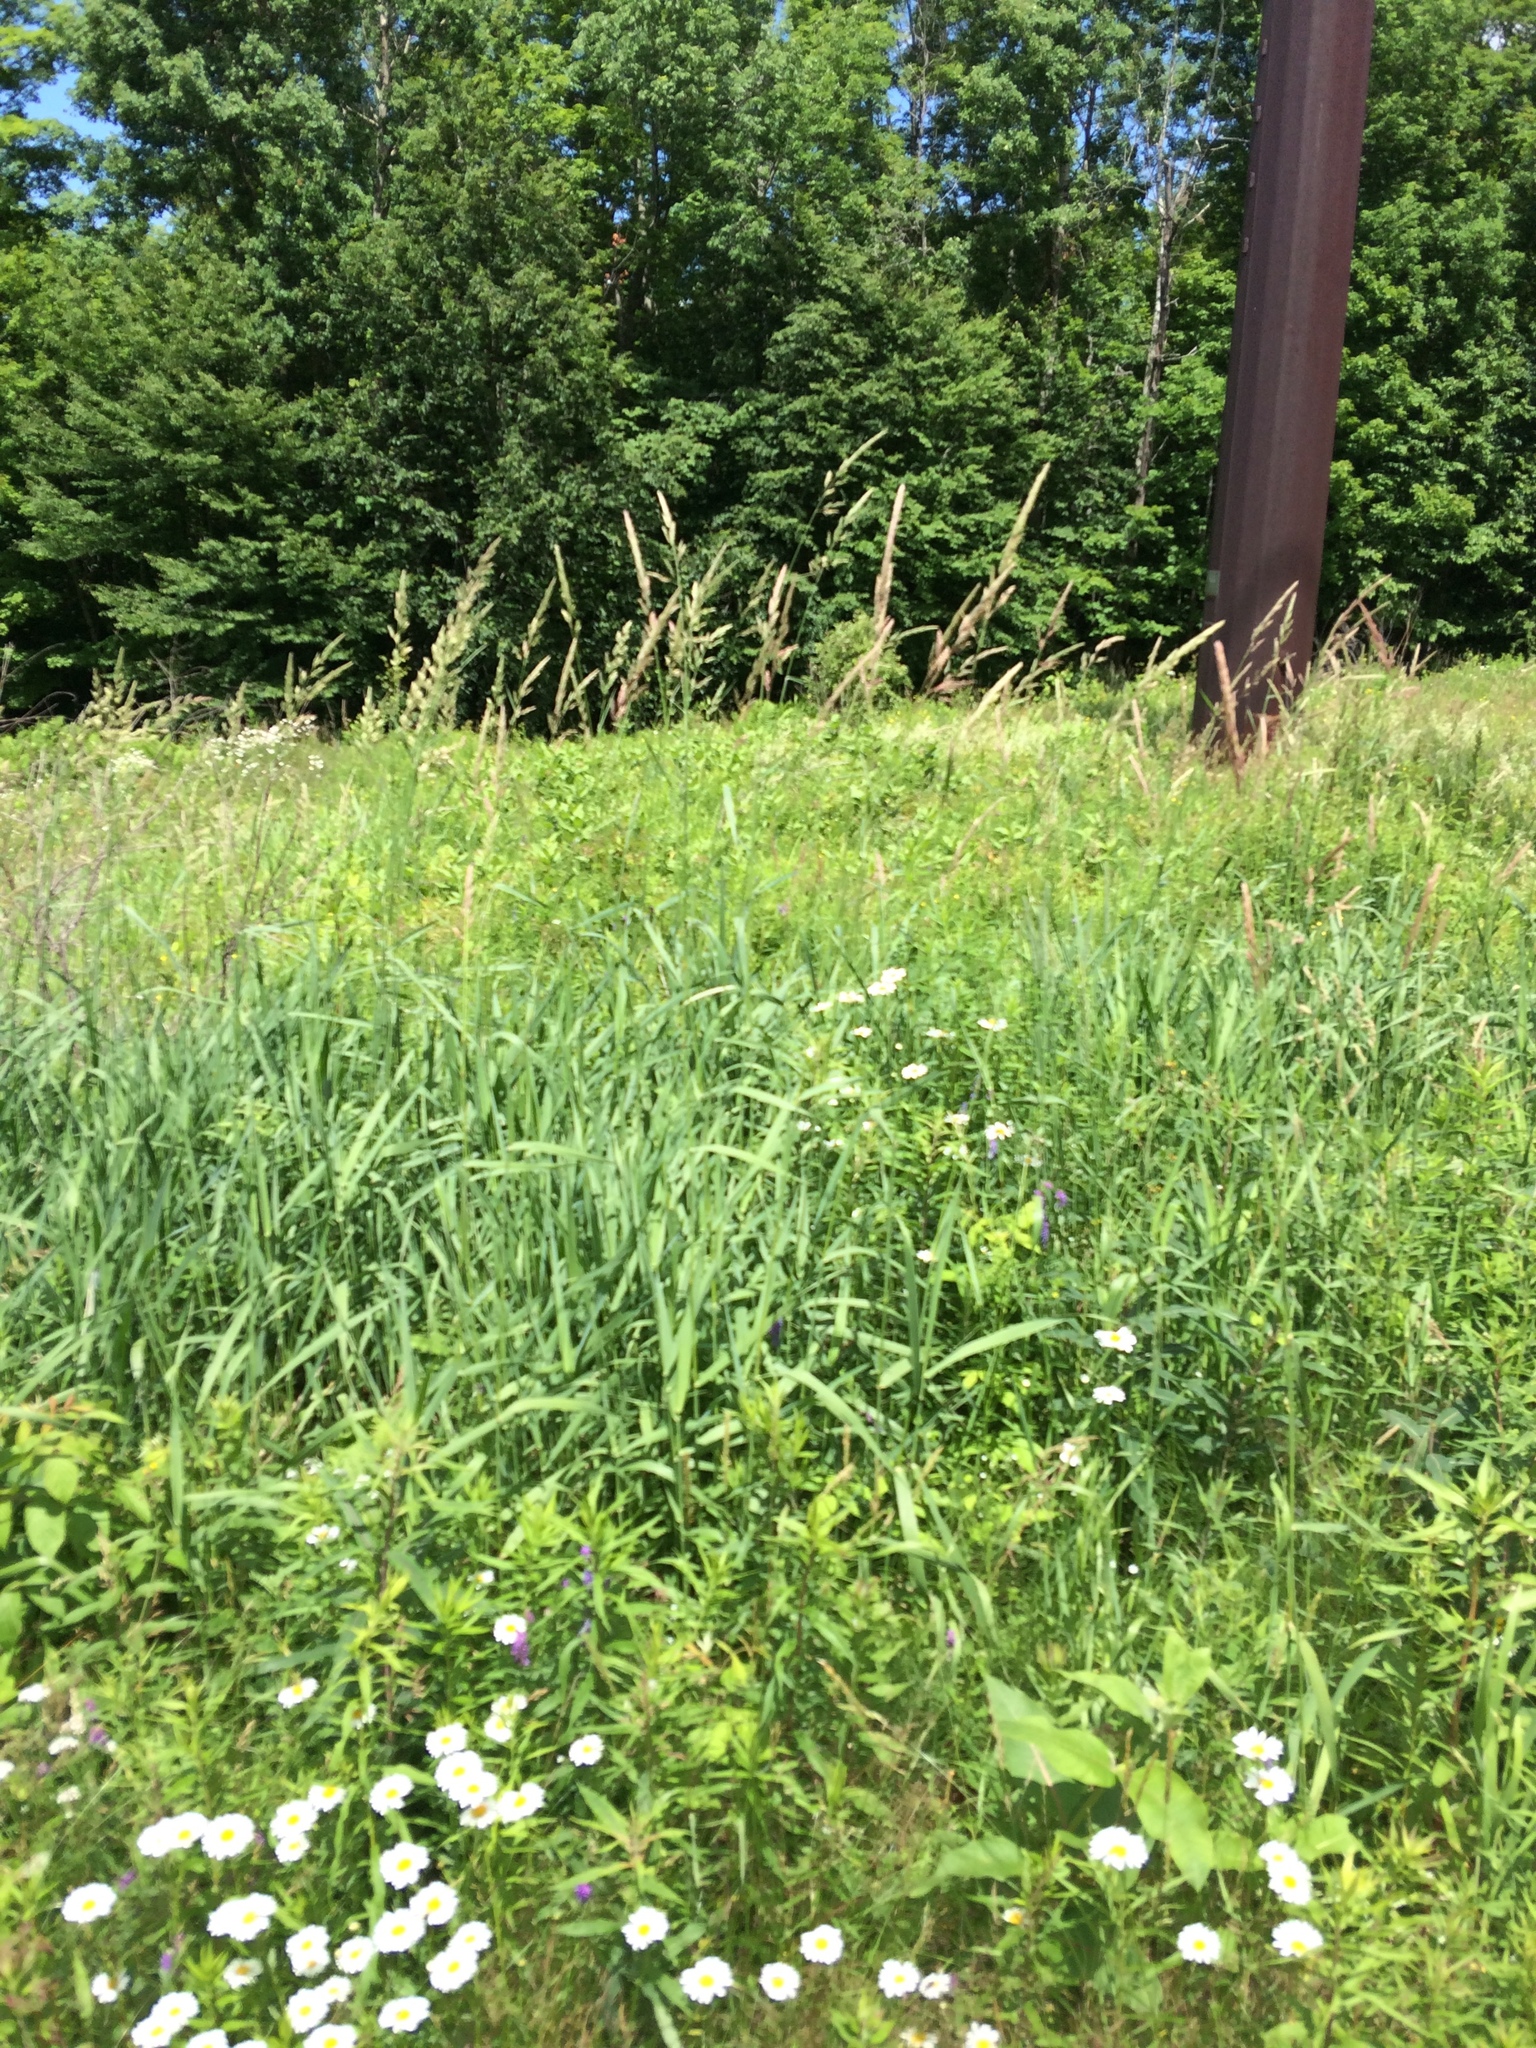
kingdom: Plantae
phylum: Tracheophyta
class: Liliopsida
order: Poales
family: Poaceae
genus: Phalaris
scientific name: Phalaris arundinacea
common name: Reed canary-grass
